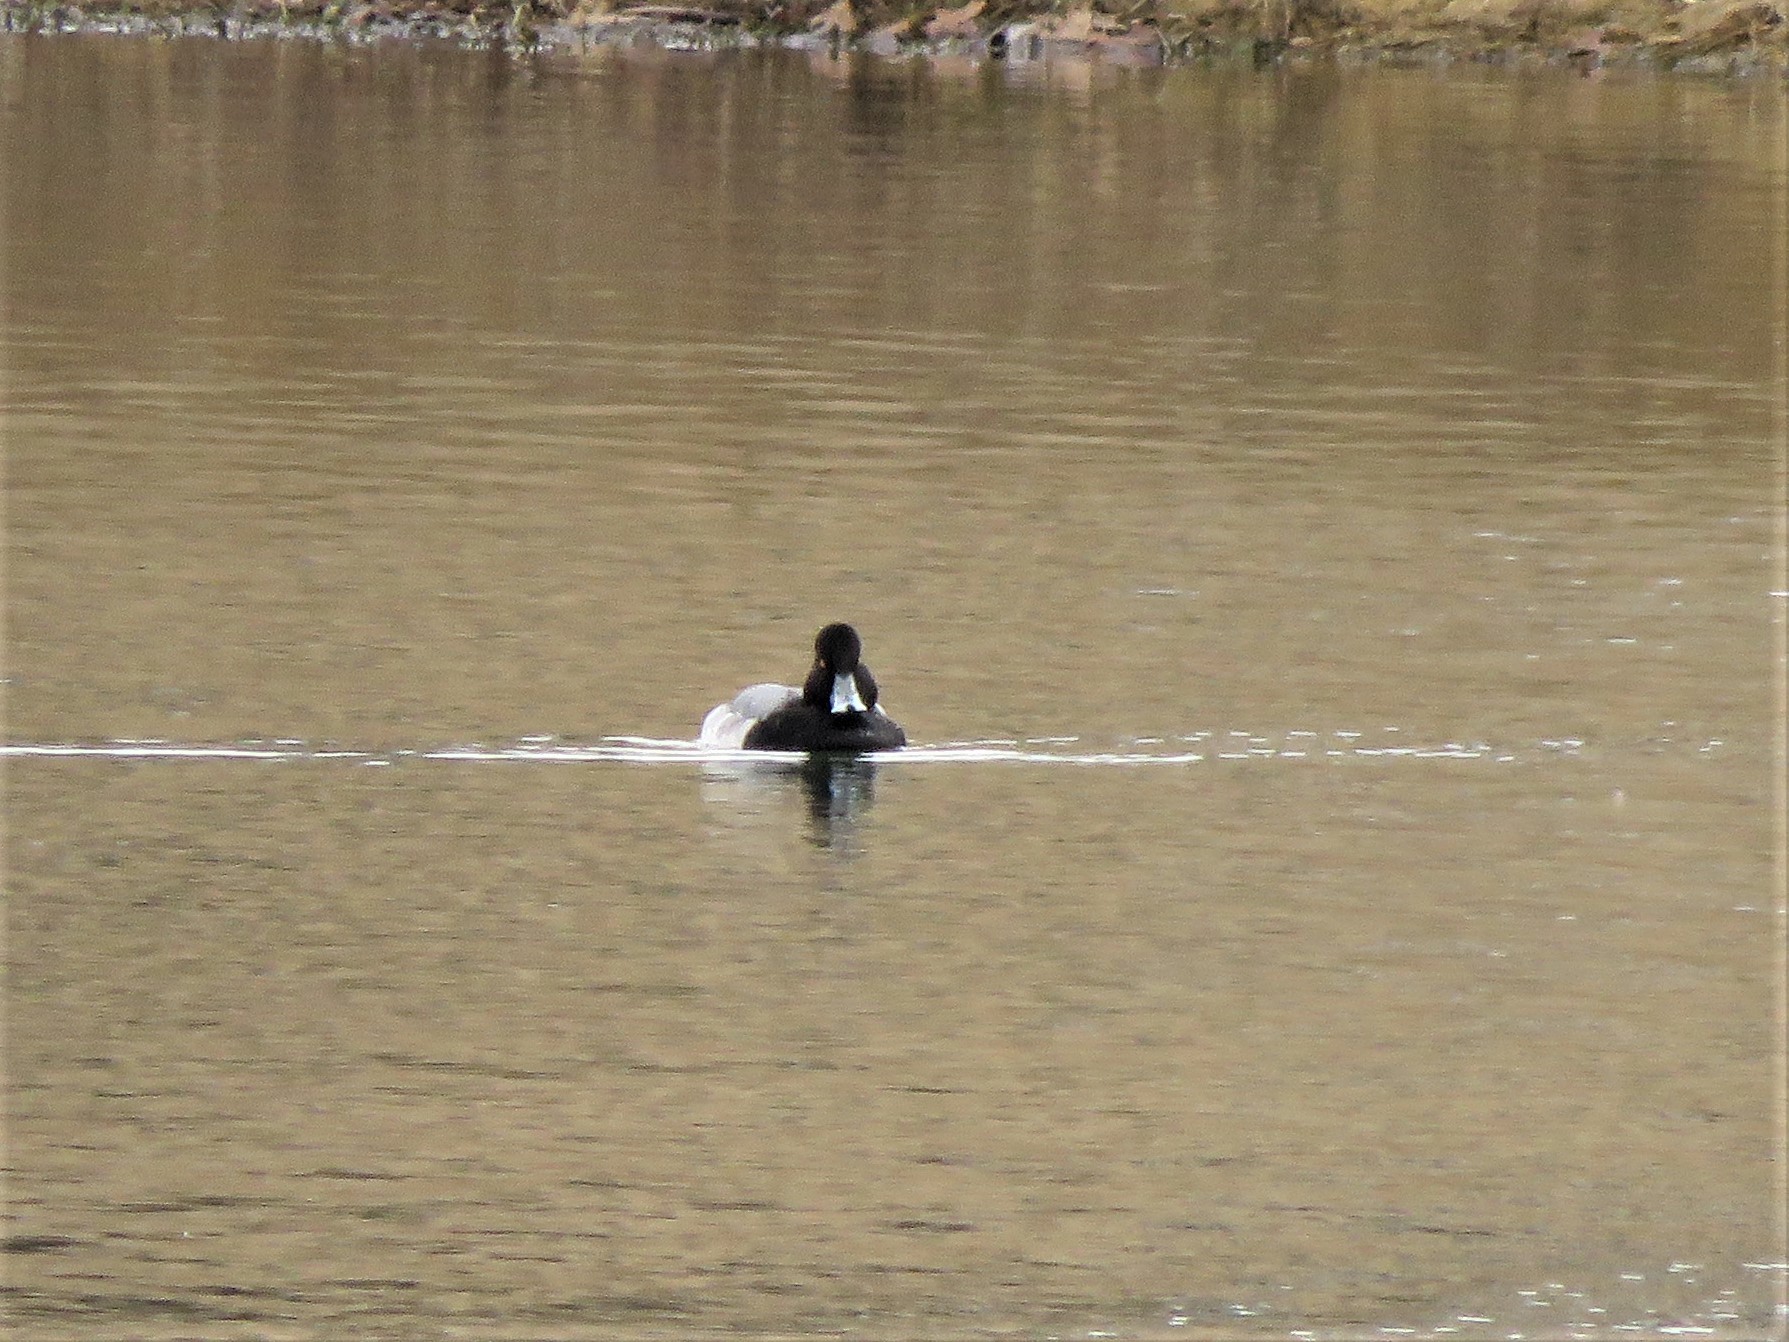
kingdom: Animalia
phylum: Chordata
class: Aves
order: Anseriformes
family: Anatidae
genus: Aythya
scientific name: Aythya affinis
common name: Lesser scaup
